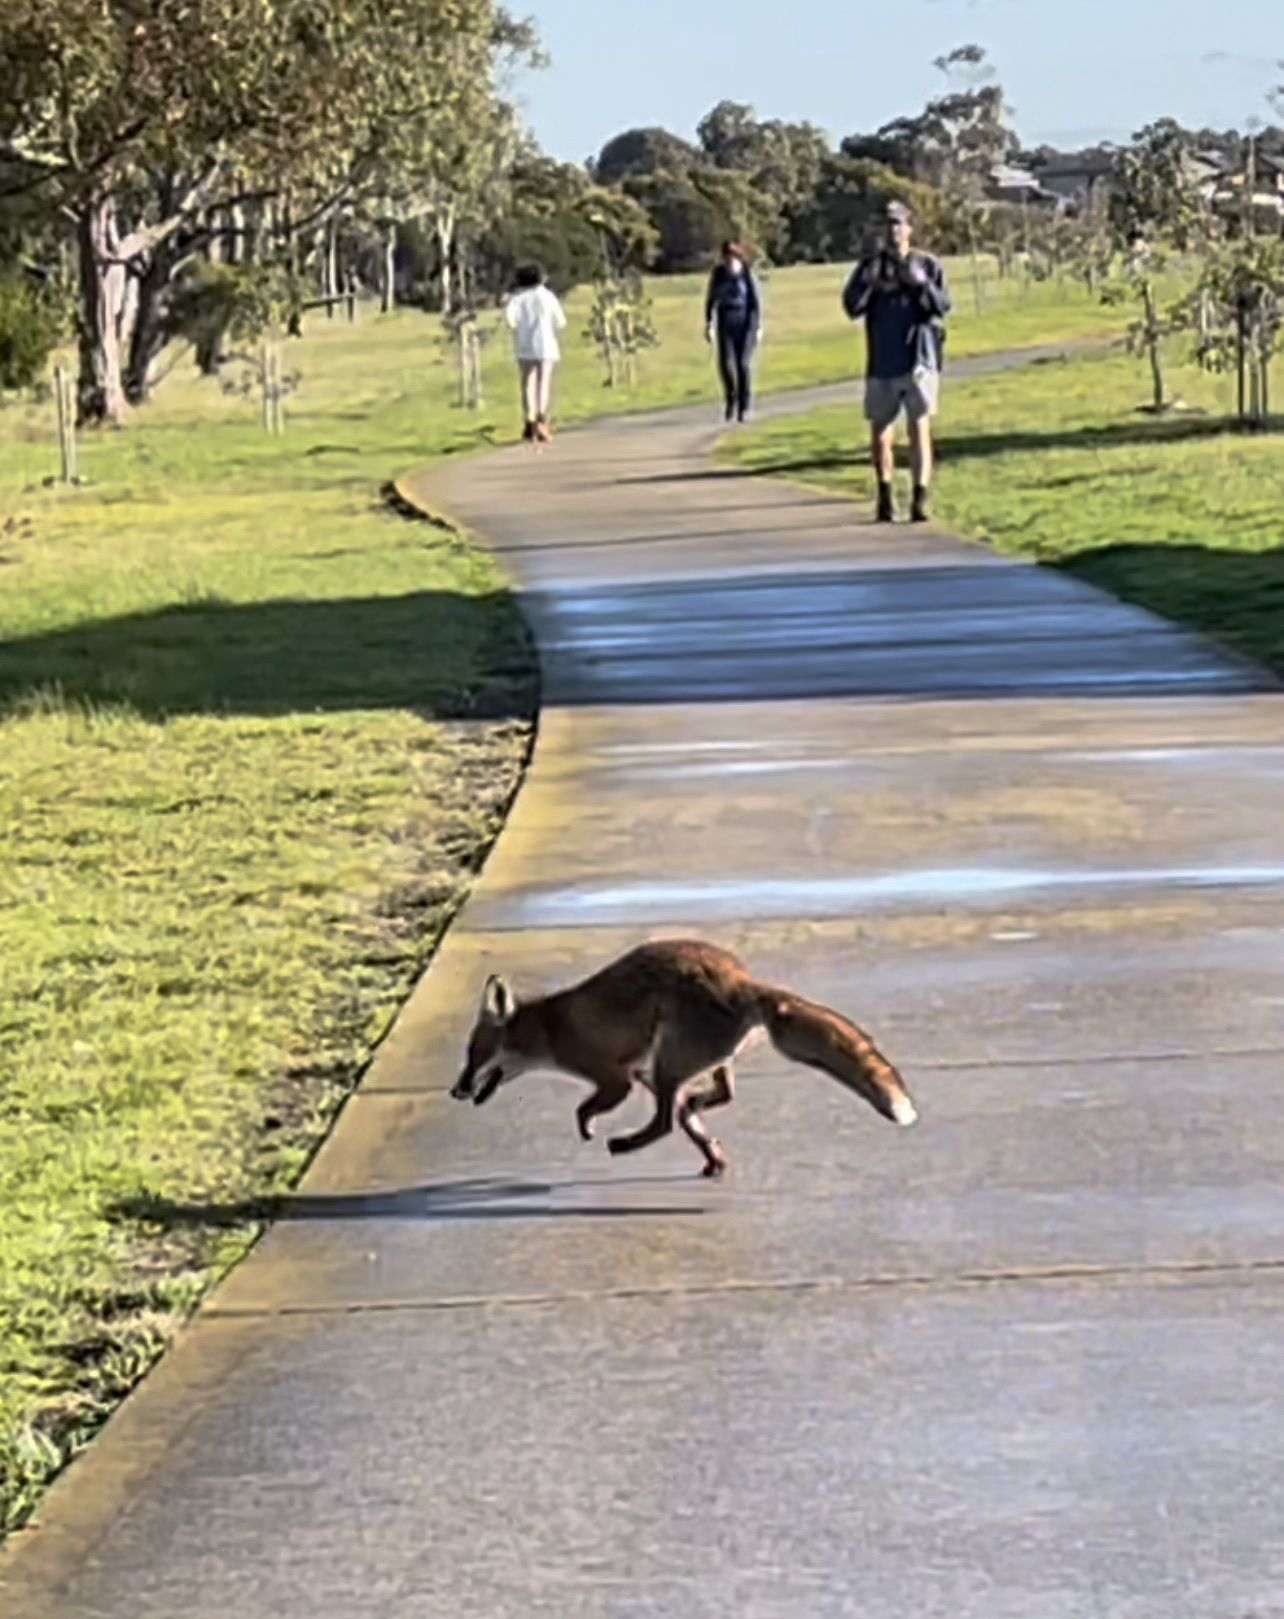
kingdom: Animalia
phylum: Chordata
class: Mammalia
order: Carnivora
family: Canidae
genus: Vulpes
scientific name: Vulpes vulpes
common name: Red fox
